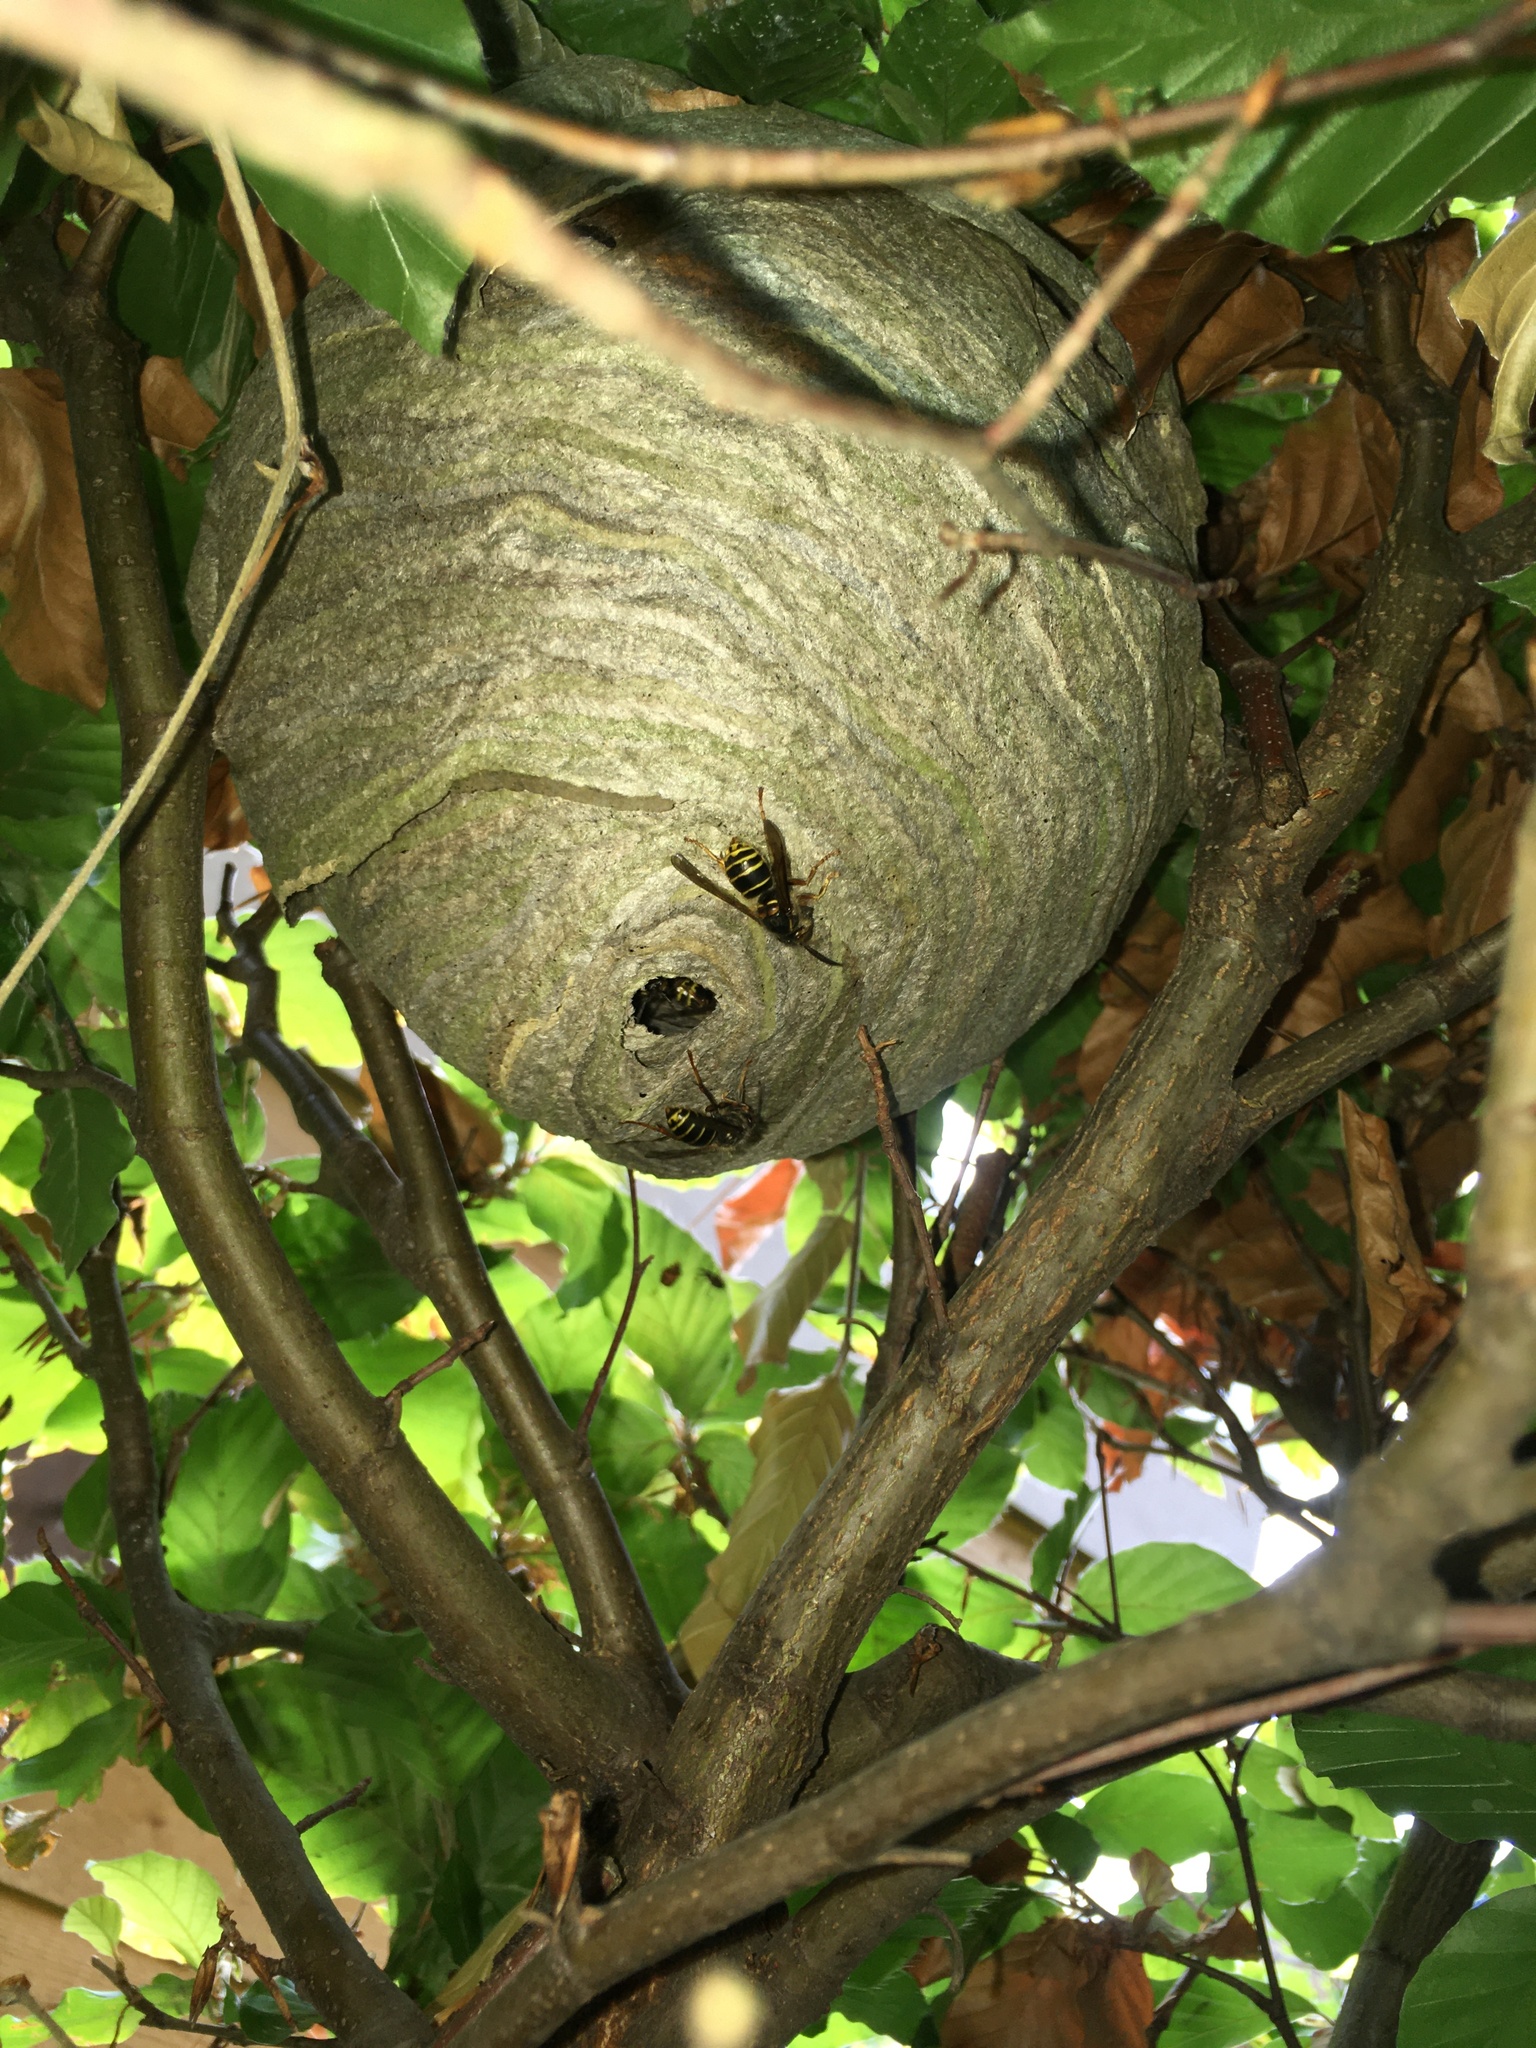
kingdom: Animalia
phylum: Arthropoda
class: Insecta
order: Hymenoptera
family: Vespidae
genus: Dolichovespula
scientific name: Dolichovespula media
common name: Median wasp
